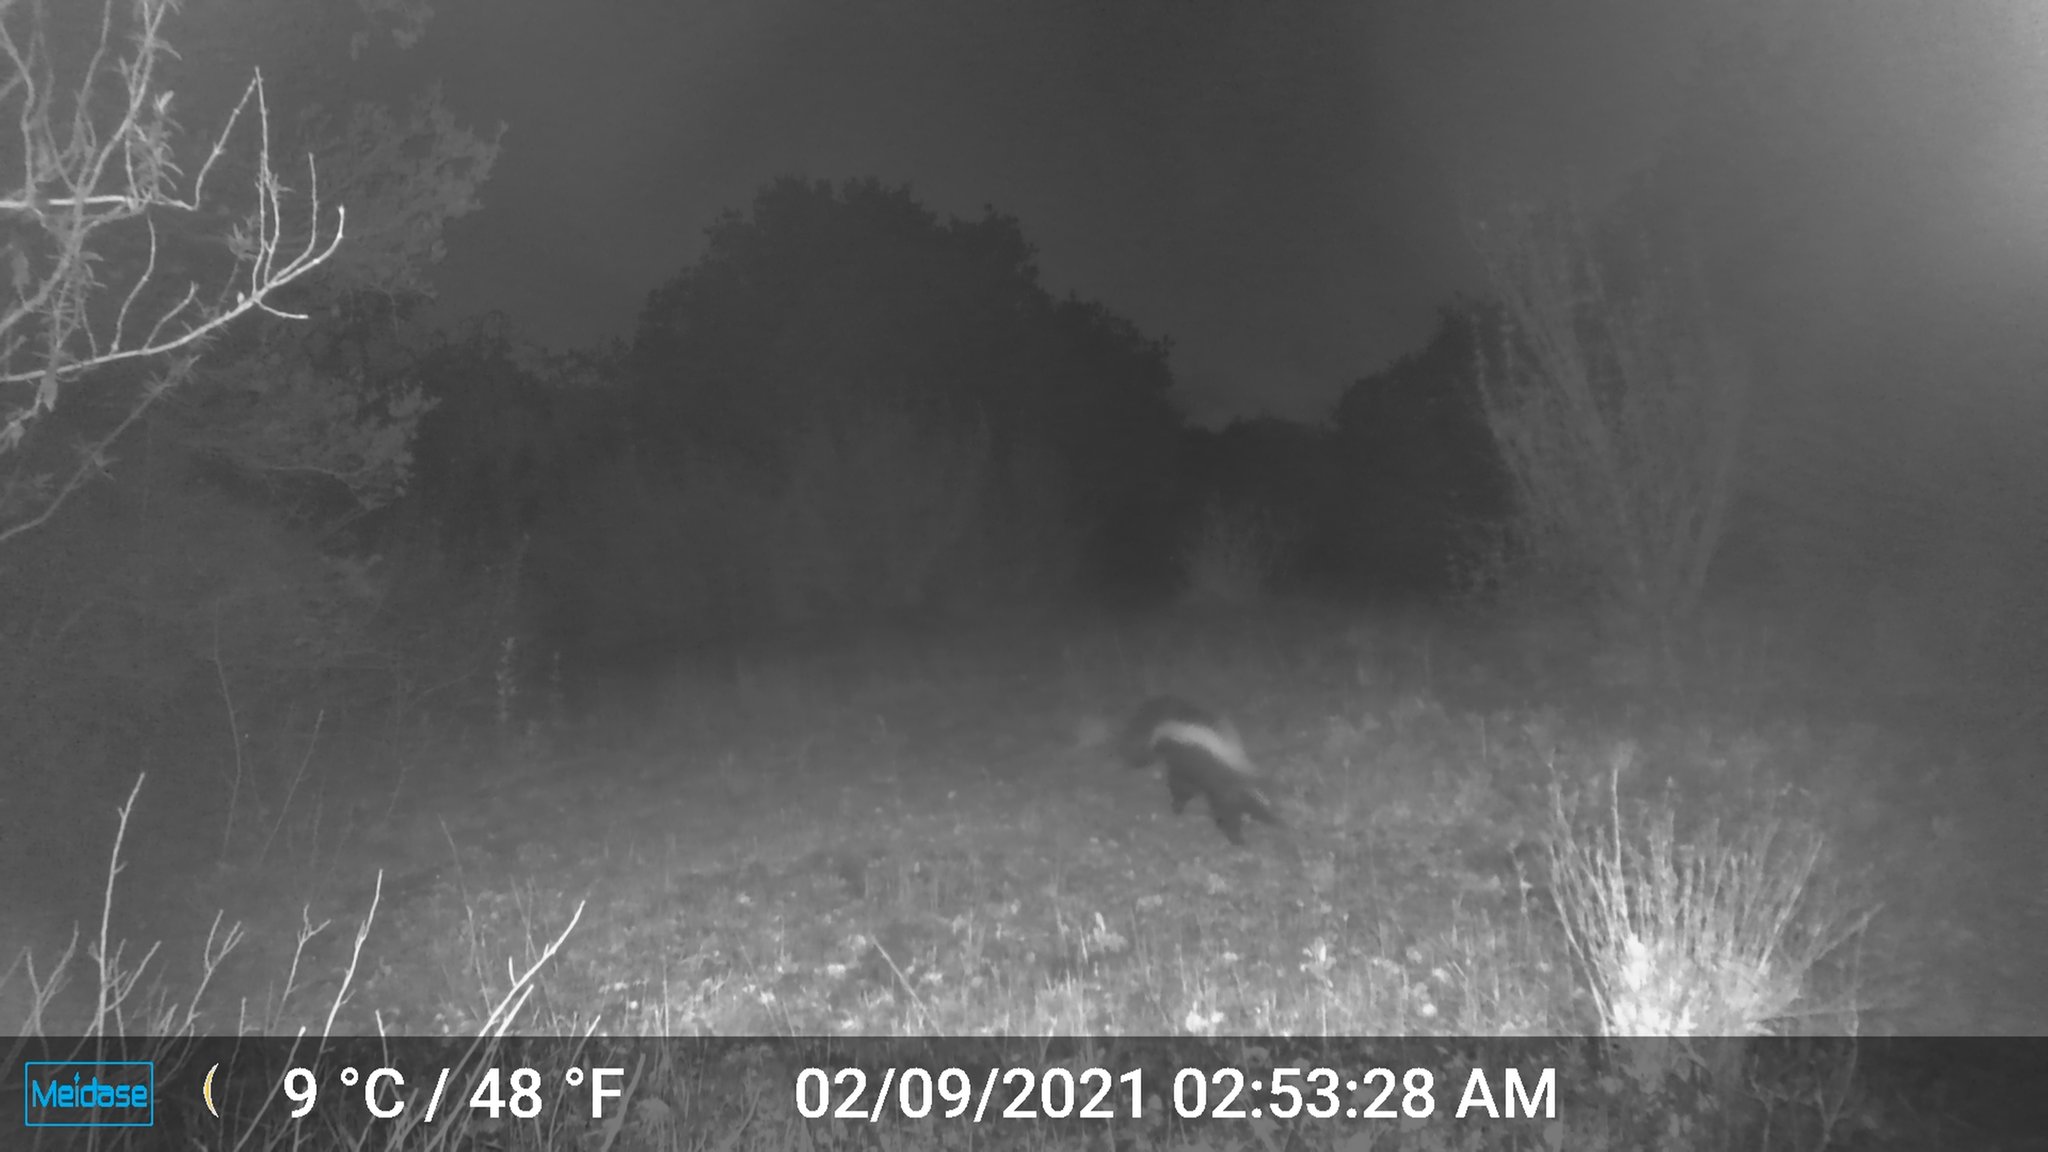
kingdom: Animalia
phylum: Chordata
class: Mammalia
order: Carnivora
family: Mephitidae
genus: Mephitis
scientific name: Mephitis mephitis
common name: Striped skunk
